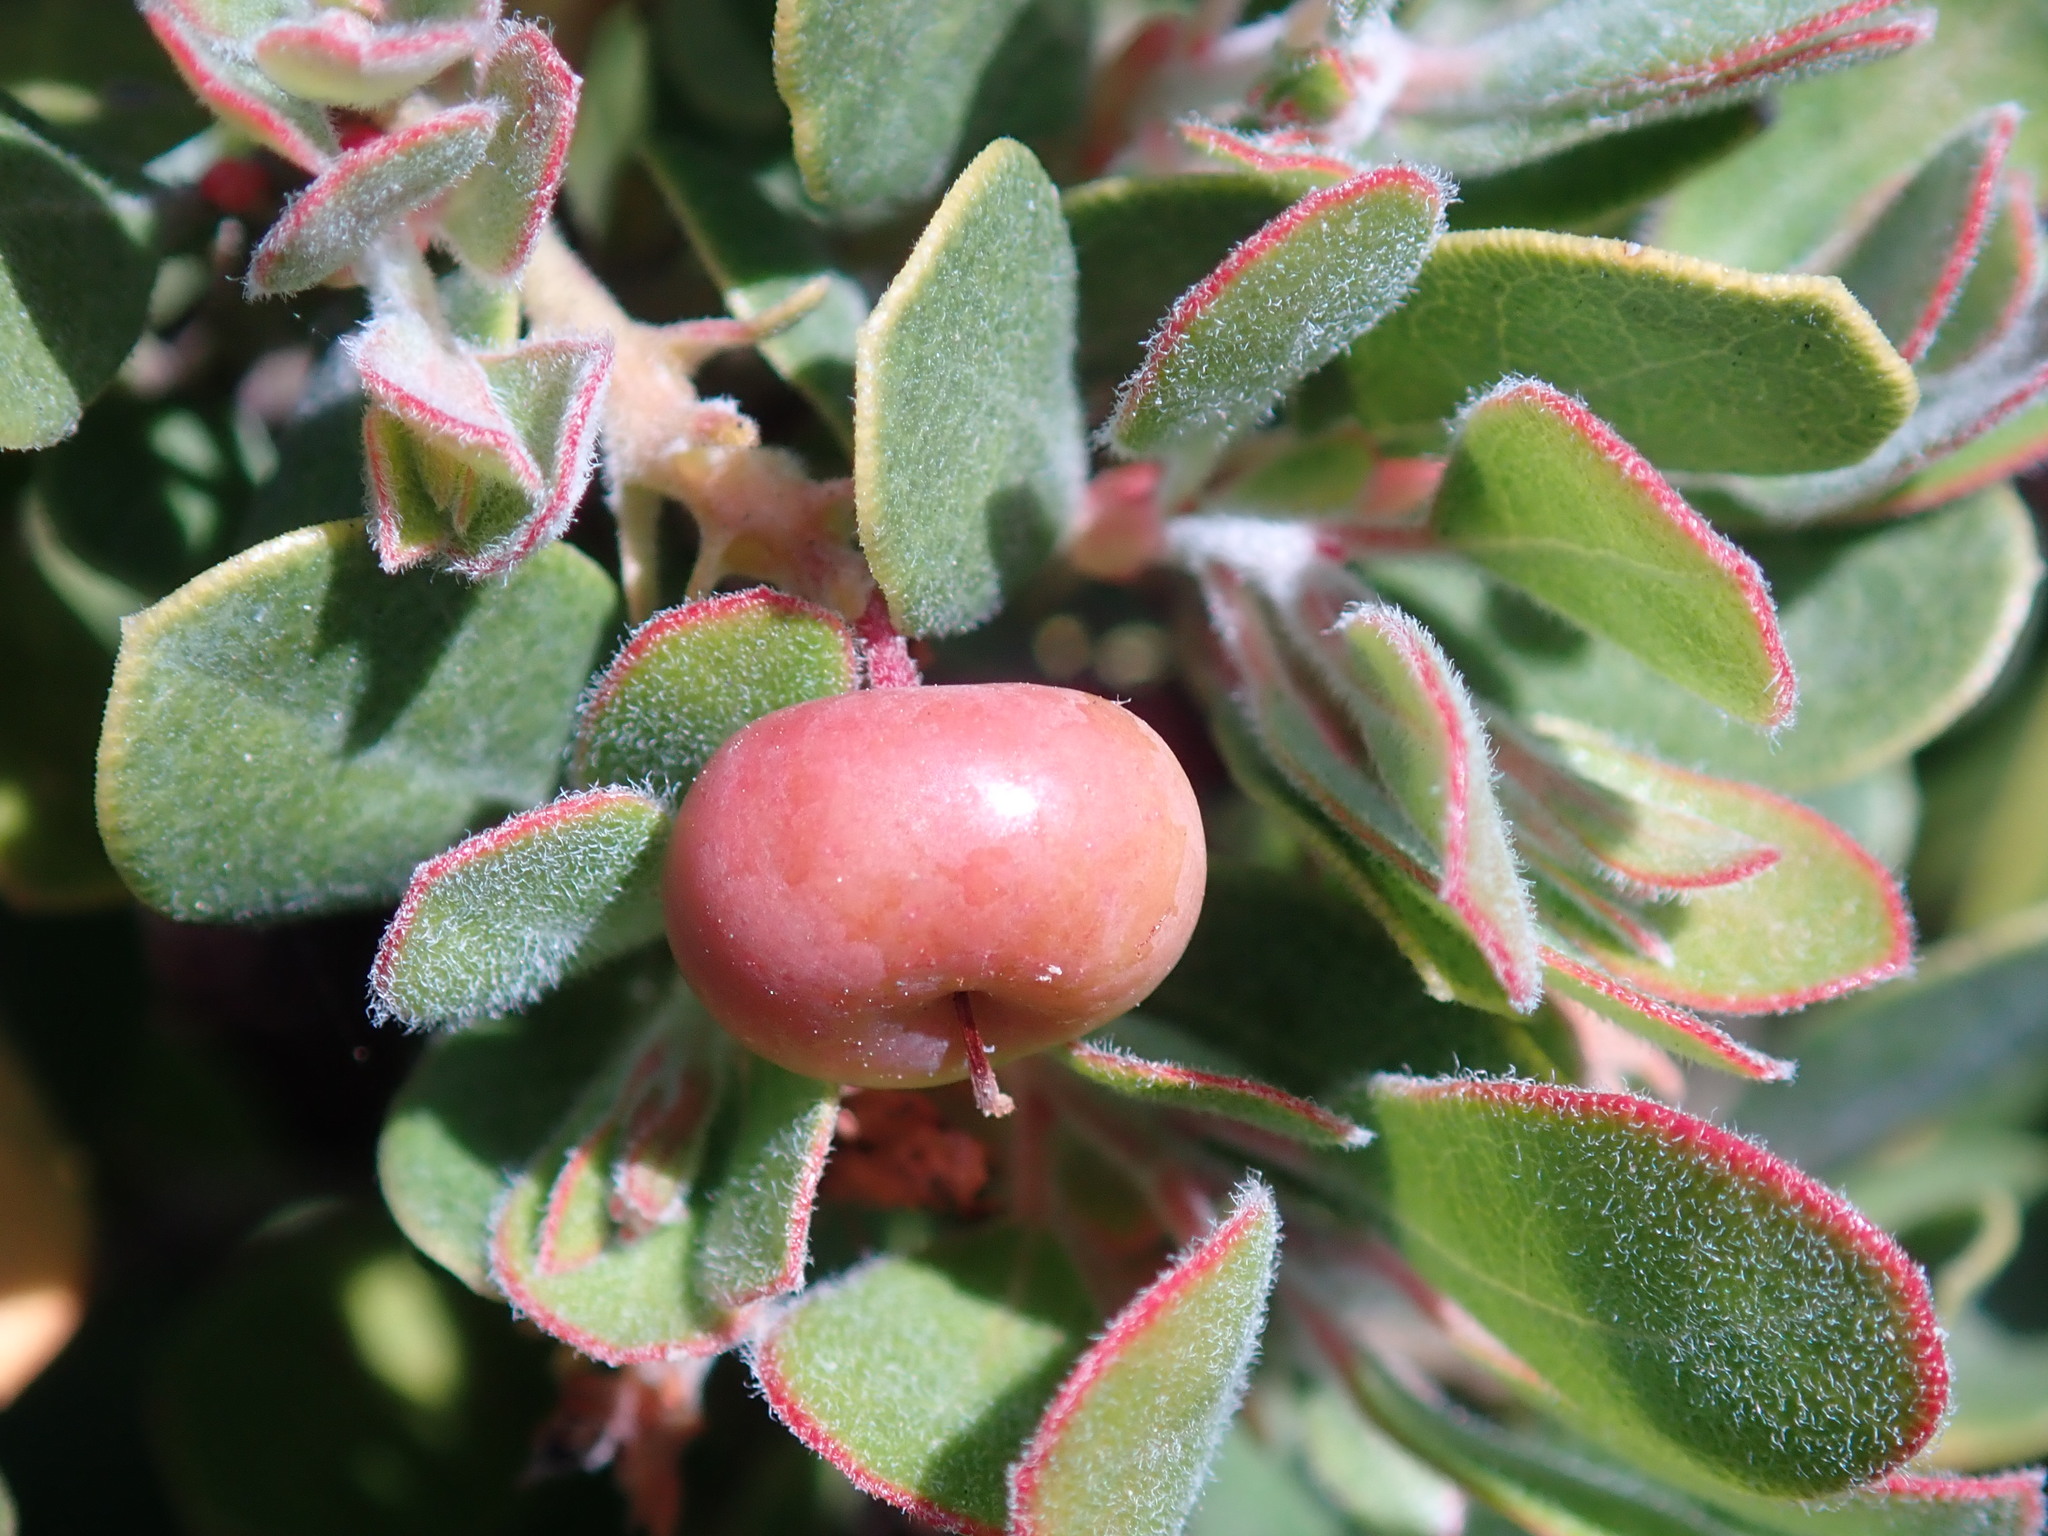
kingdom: Plantae
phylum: Tracheophyta
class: Magnoliopsida
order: Ericales
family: Ericaceae
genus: Arctostaphylos
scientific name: Arctostaphylos pumila
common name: Sandmat manzanita
